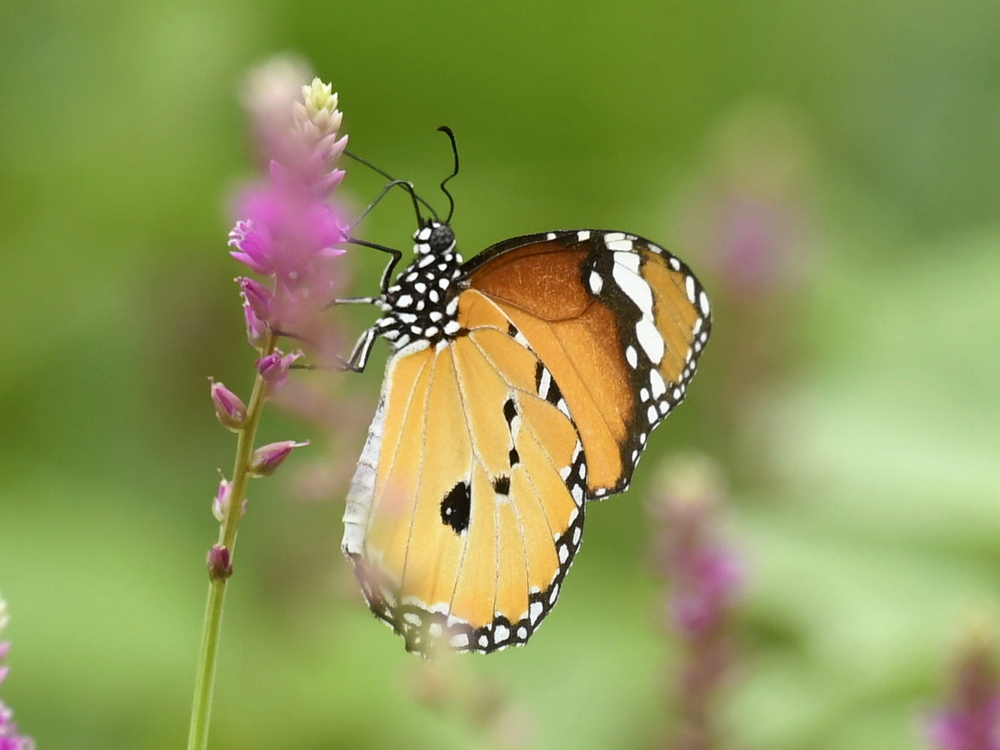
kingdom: Animalia
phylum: Arthropoda
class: Insecta
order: Lepidoptera
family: Nymphalidae
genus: Danaus
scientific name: Danaus chrysippus
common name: Plain tiger
